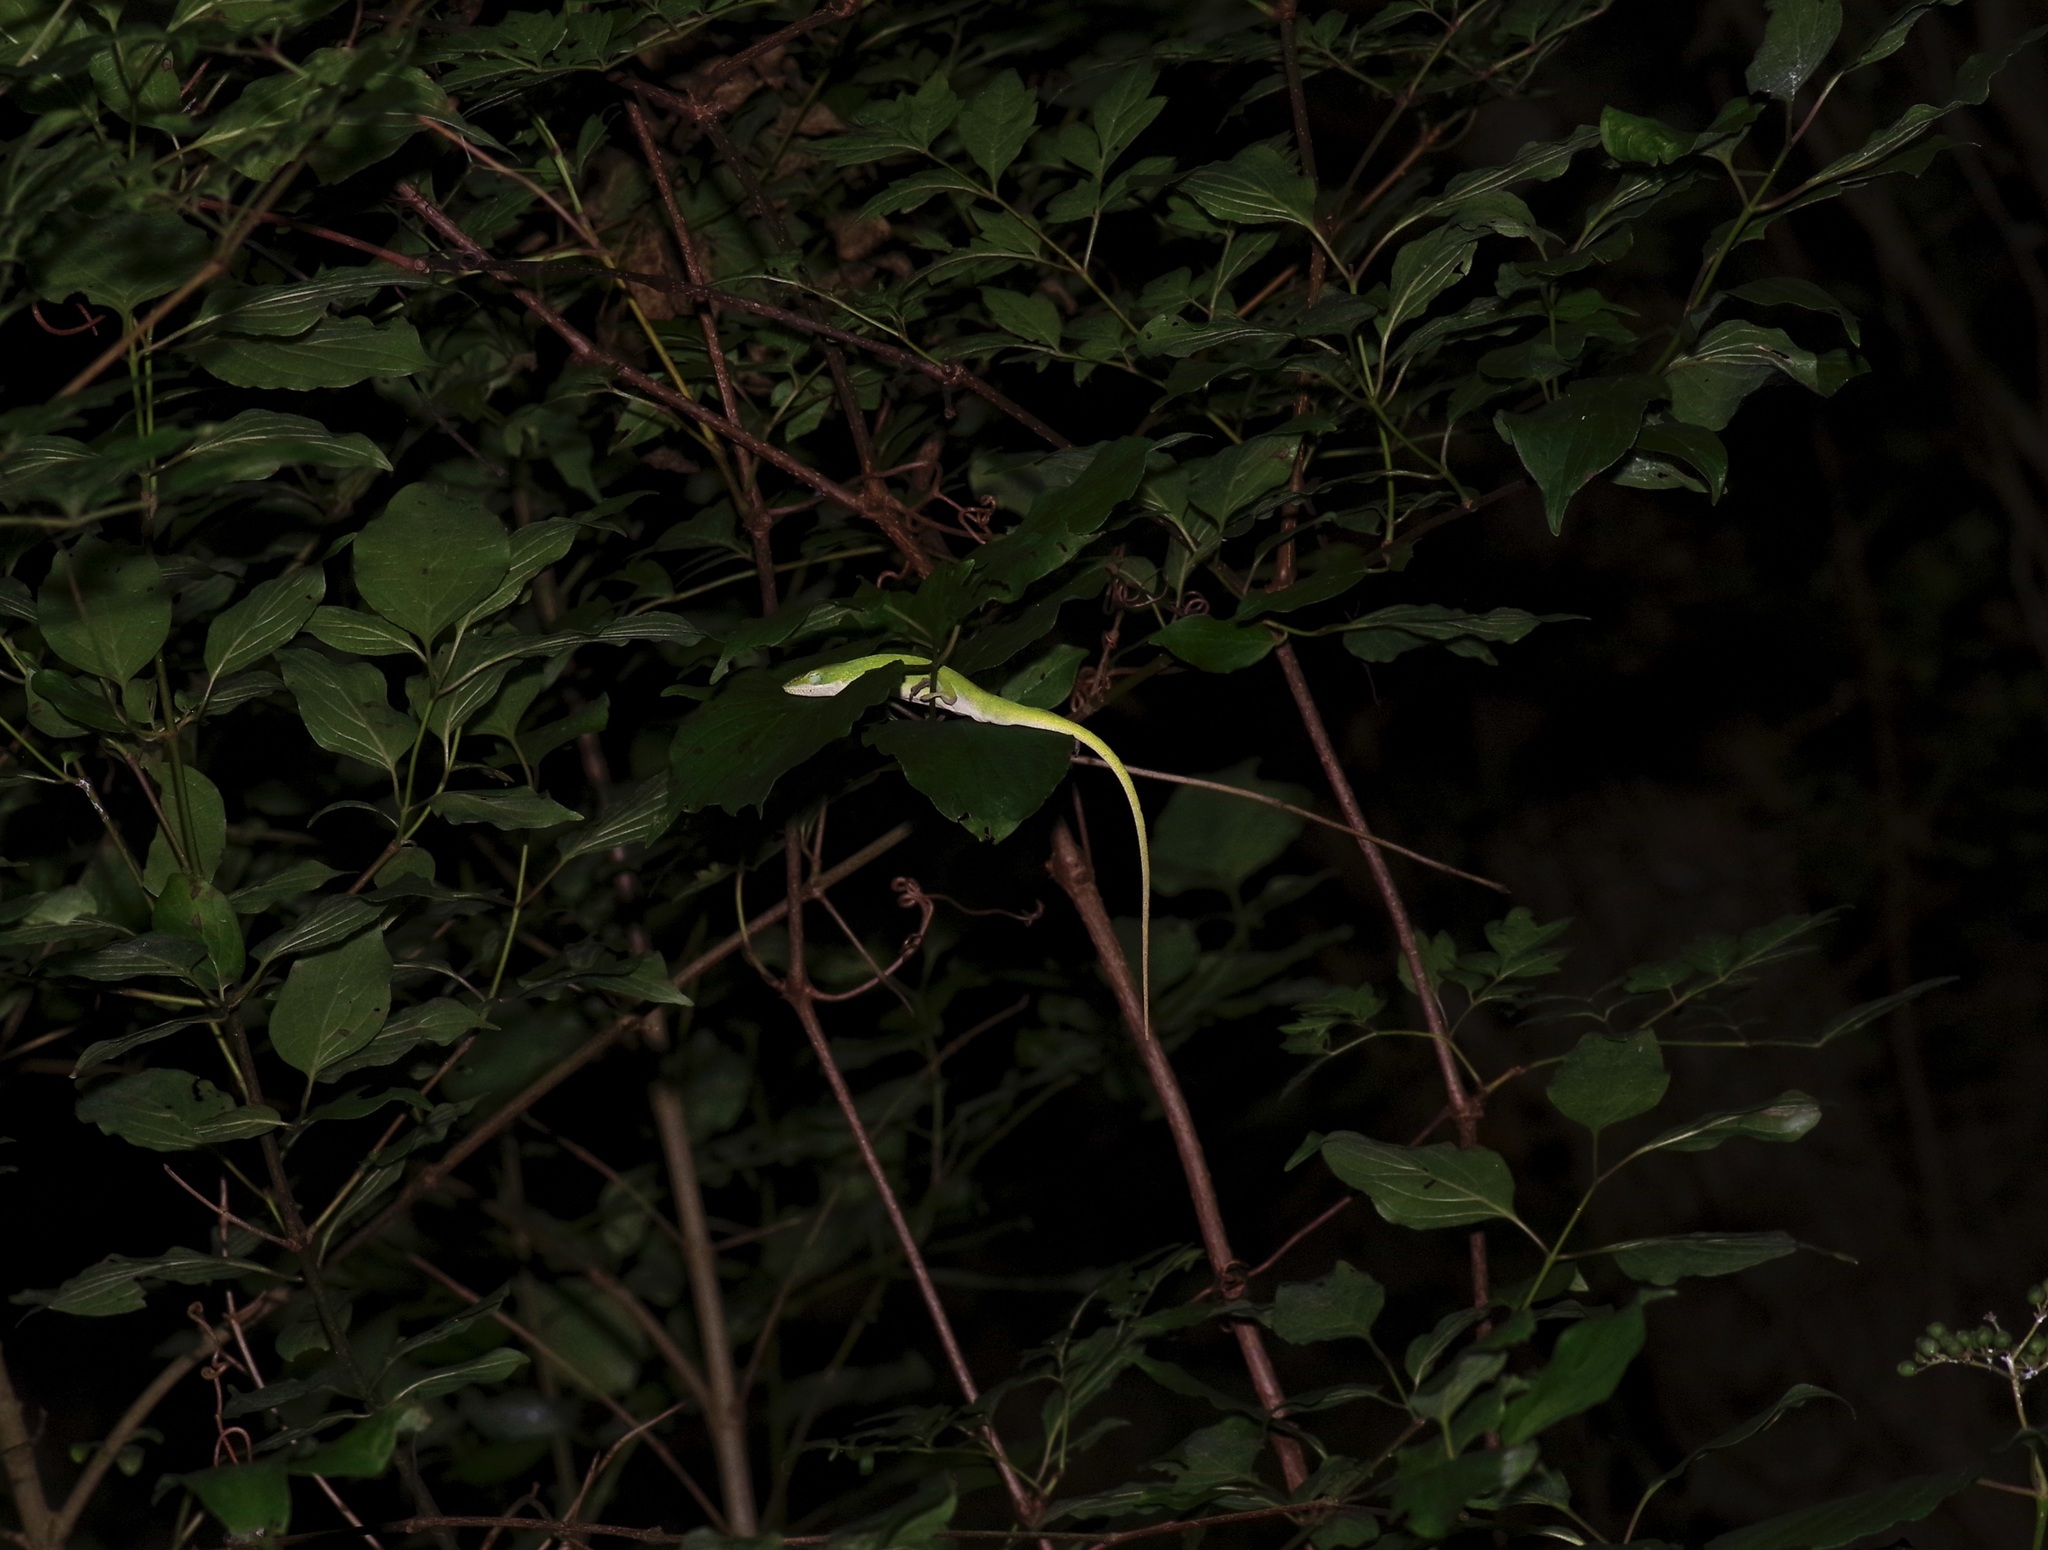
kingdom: Animalia
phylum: Chordata
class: Squamata
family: Dactyloidae
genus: Anolis
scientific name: Anolis carolinensis
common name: Green anole
